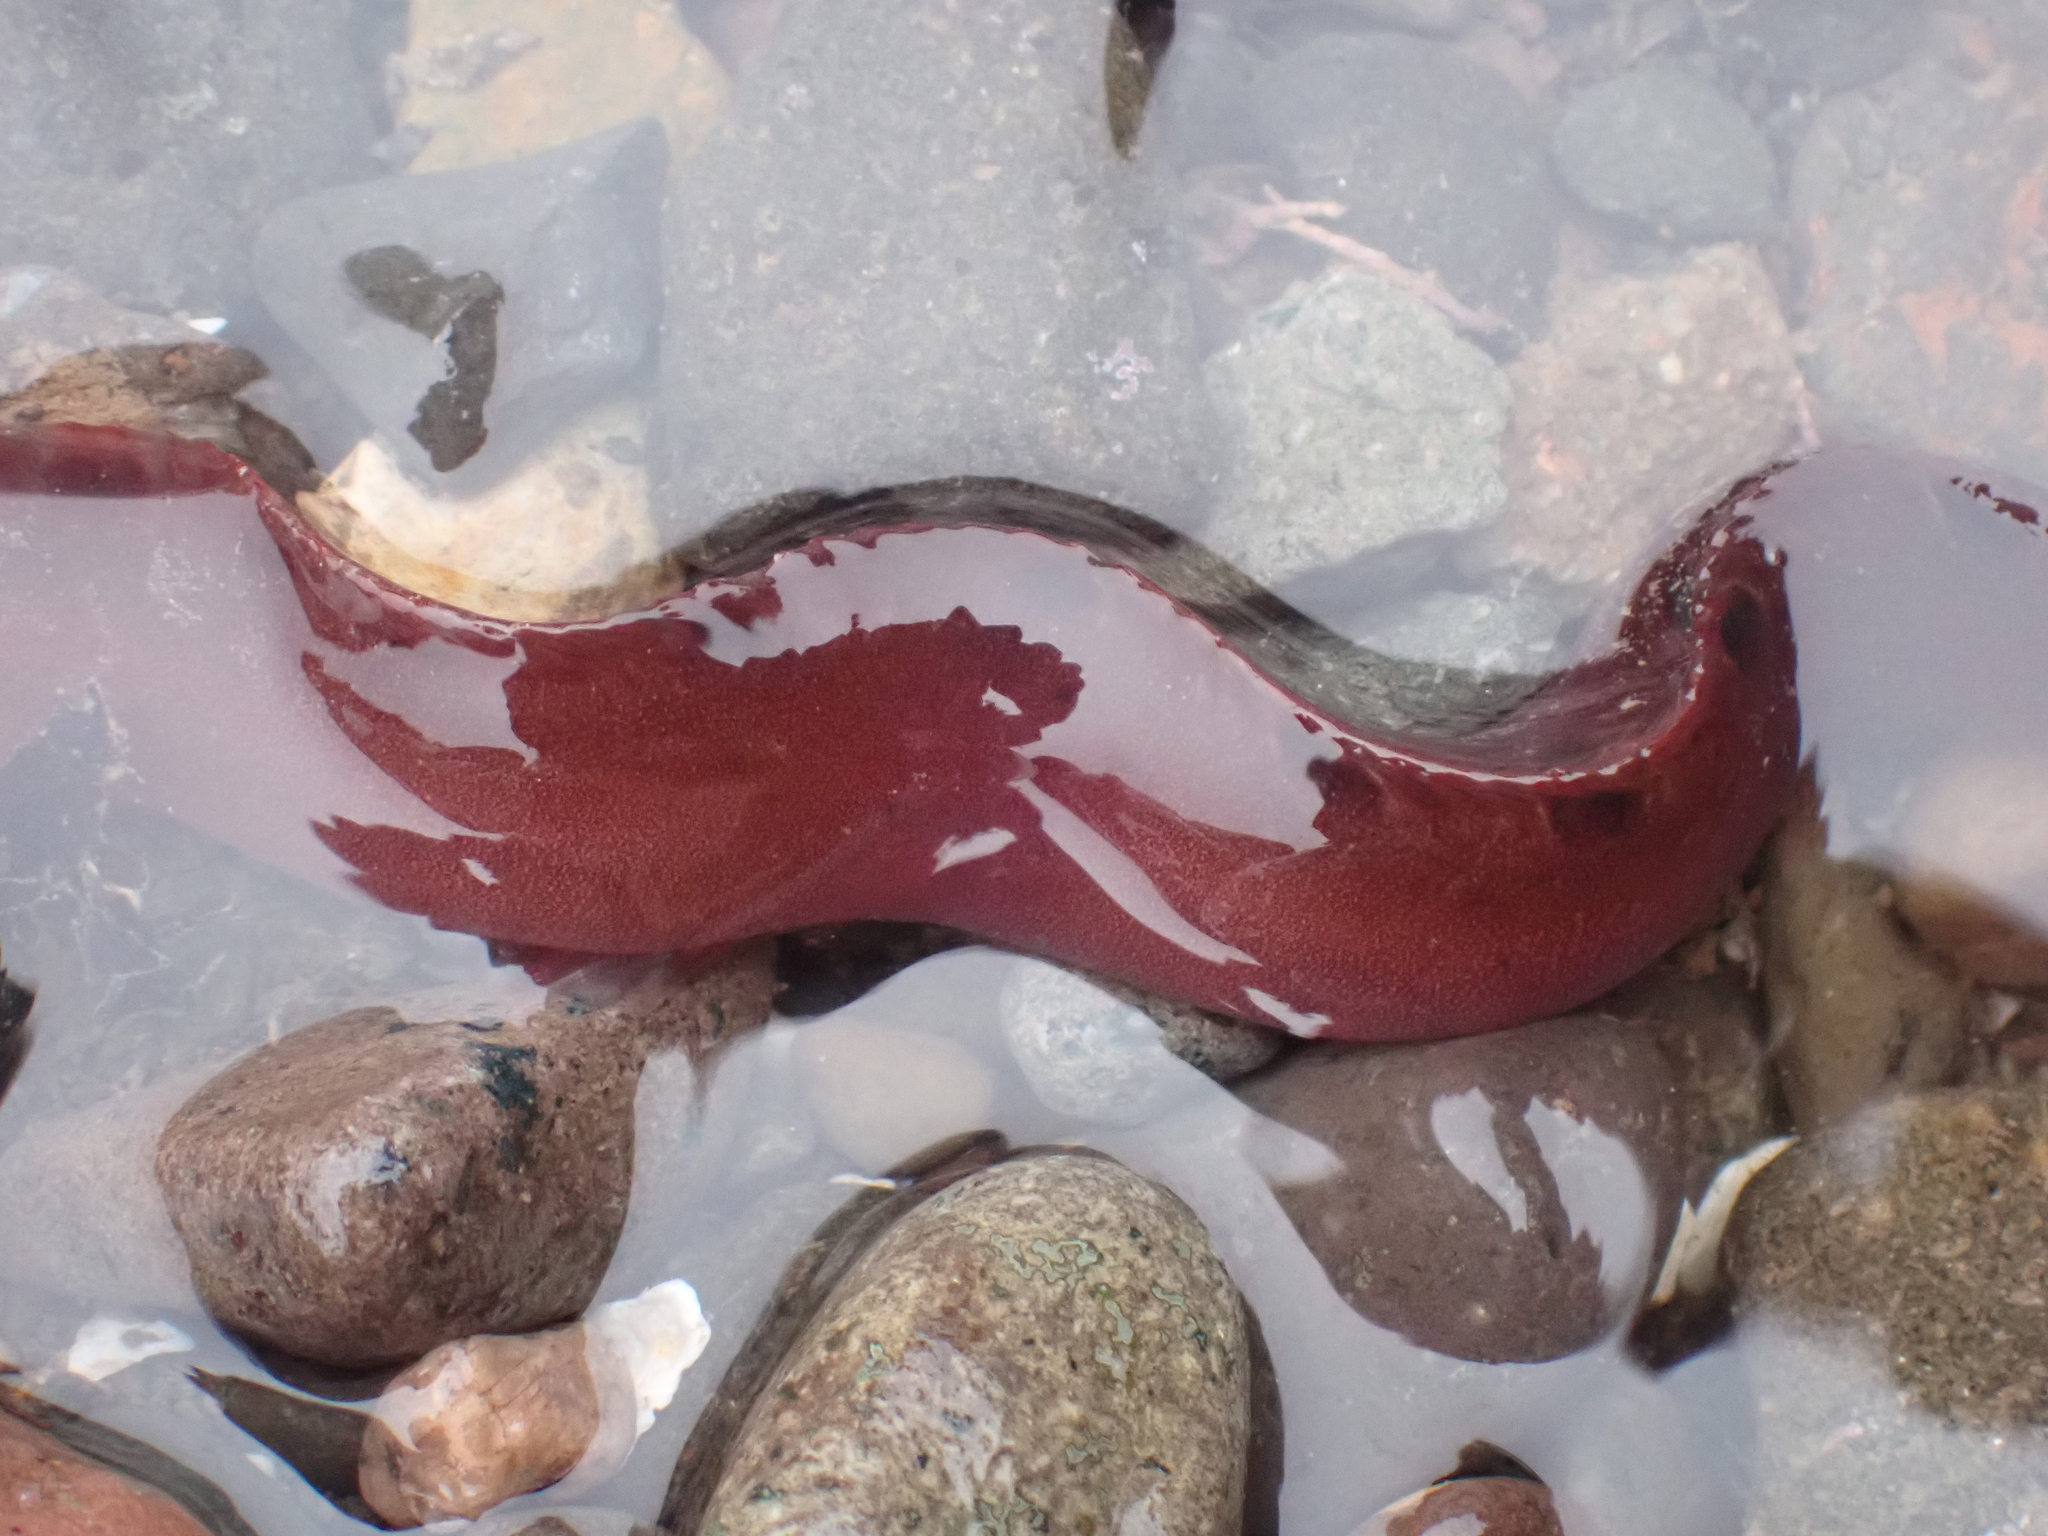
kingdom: Animalia
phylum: Chordata
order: Perciformes
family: Pholidae
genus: Pholis
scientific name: Pholis gunnellus
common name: Butterfish
